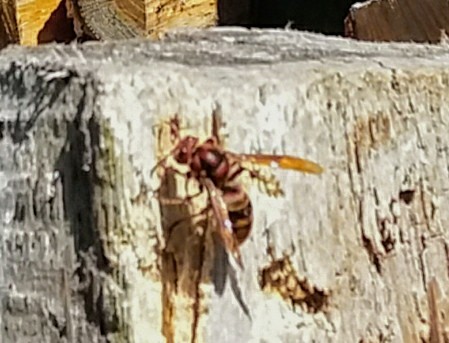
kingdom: Animalia
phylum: Arthropoda
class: Insecta
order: Hymenoptera
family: Vespidae
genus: Vespa
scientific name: Vespa crabro
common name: Hornet
